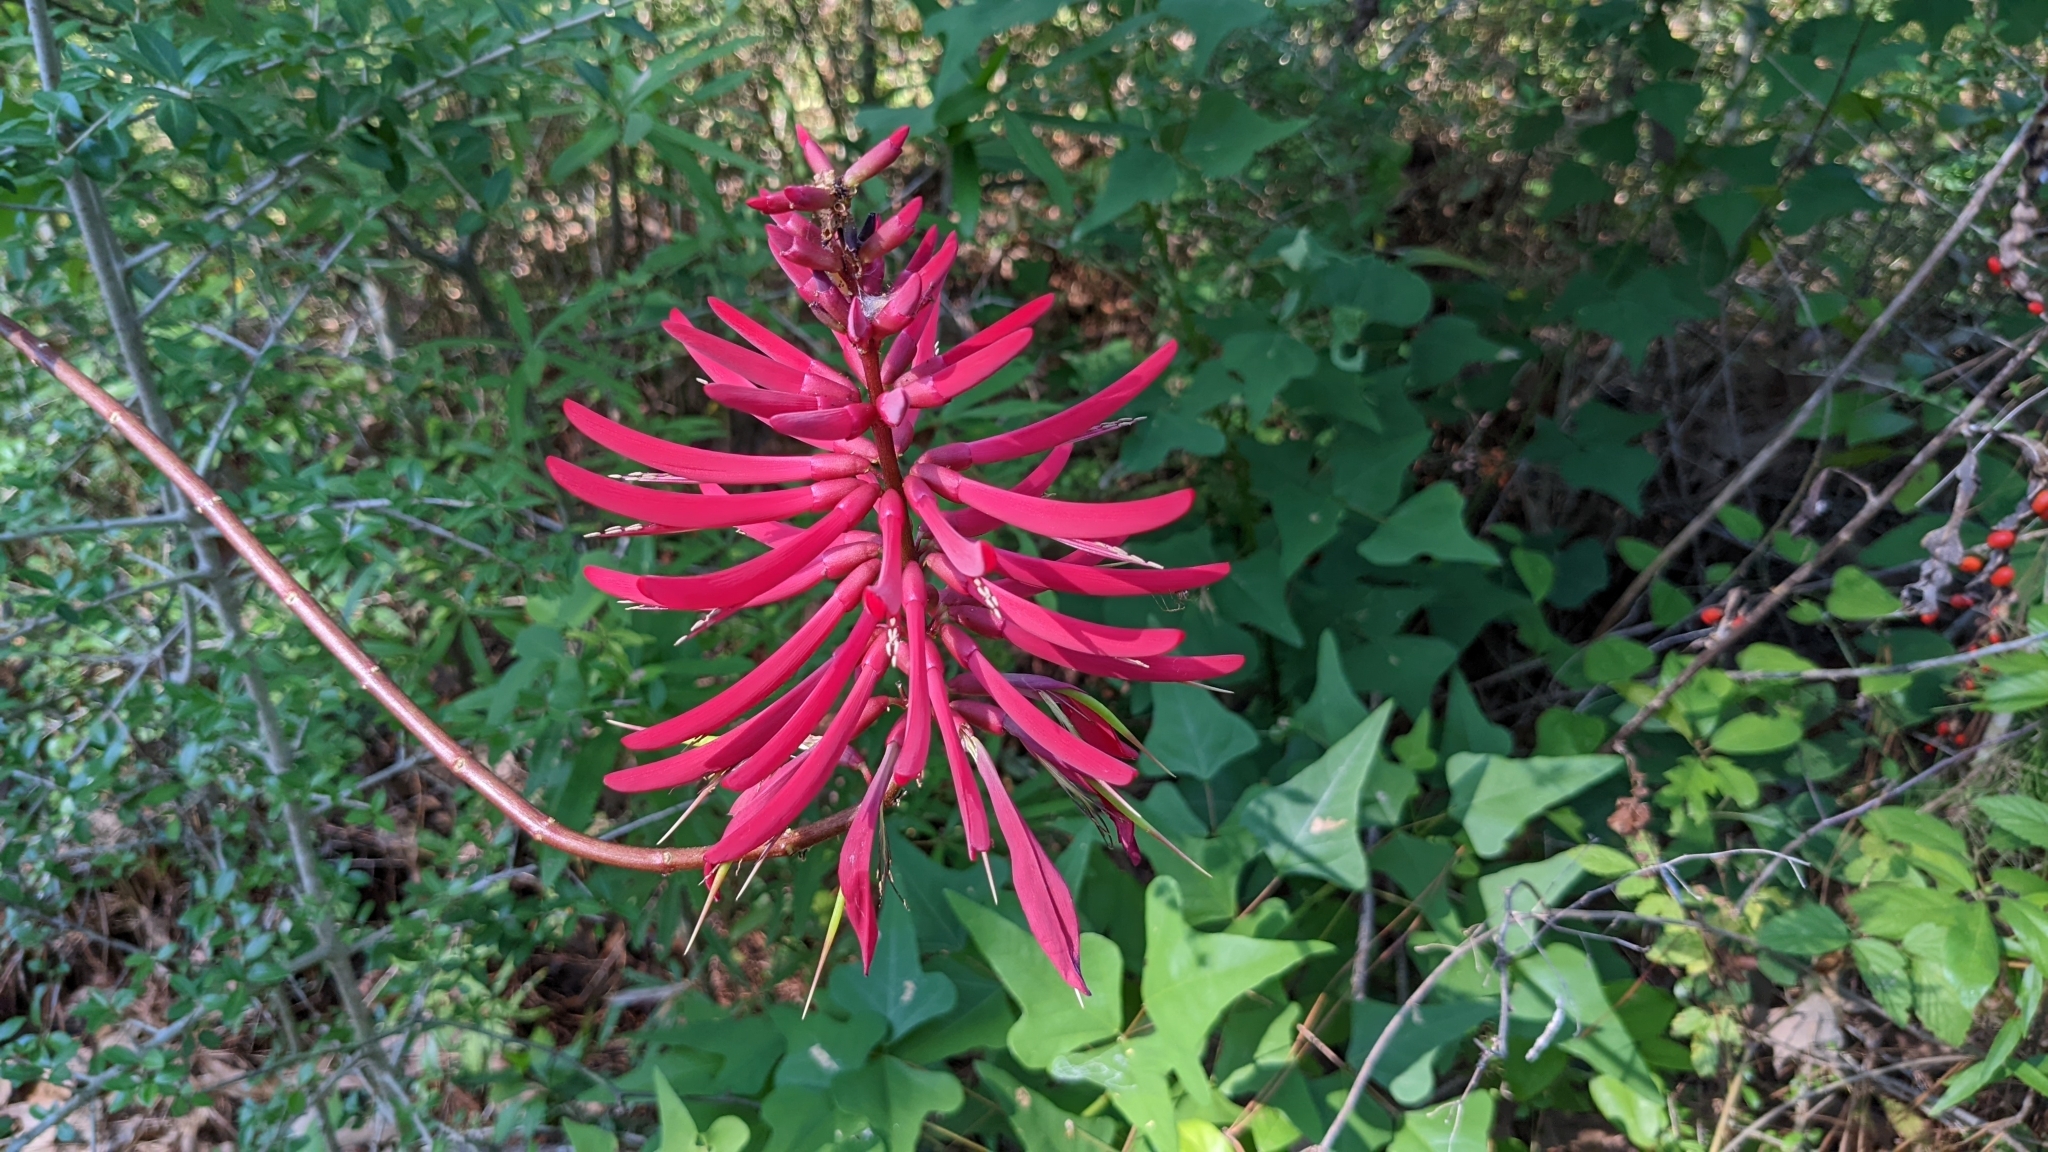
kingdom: Plantae
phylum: Tracheophyta
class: Magnoliopsida
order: Fabales
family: Fabaceae
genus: Erythrina
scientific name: Erythrina herbacea
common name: Coral-bean
